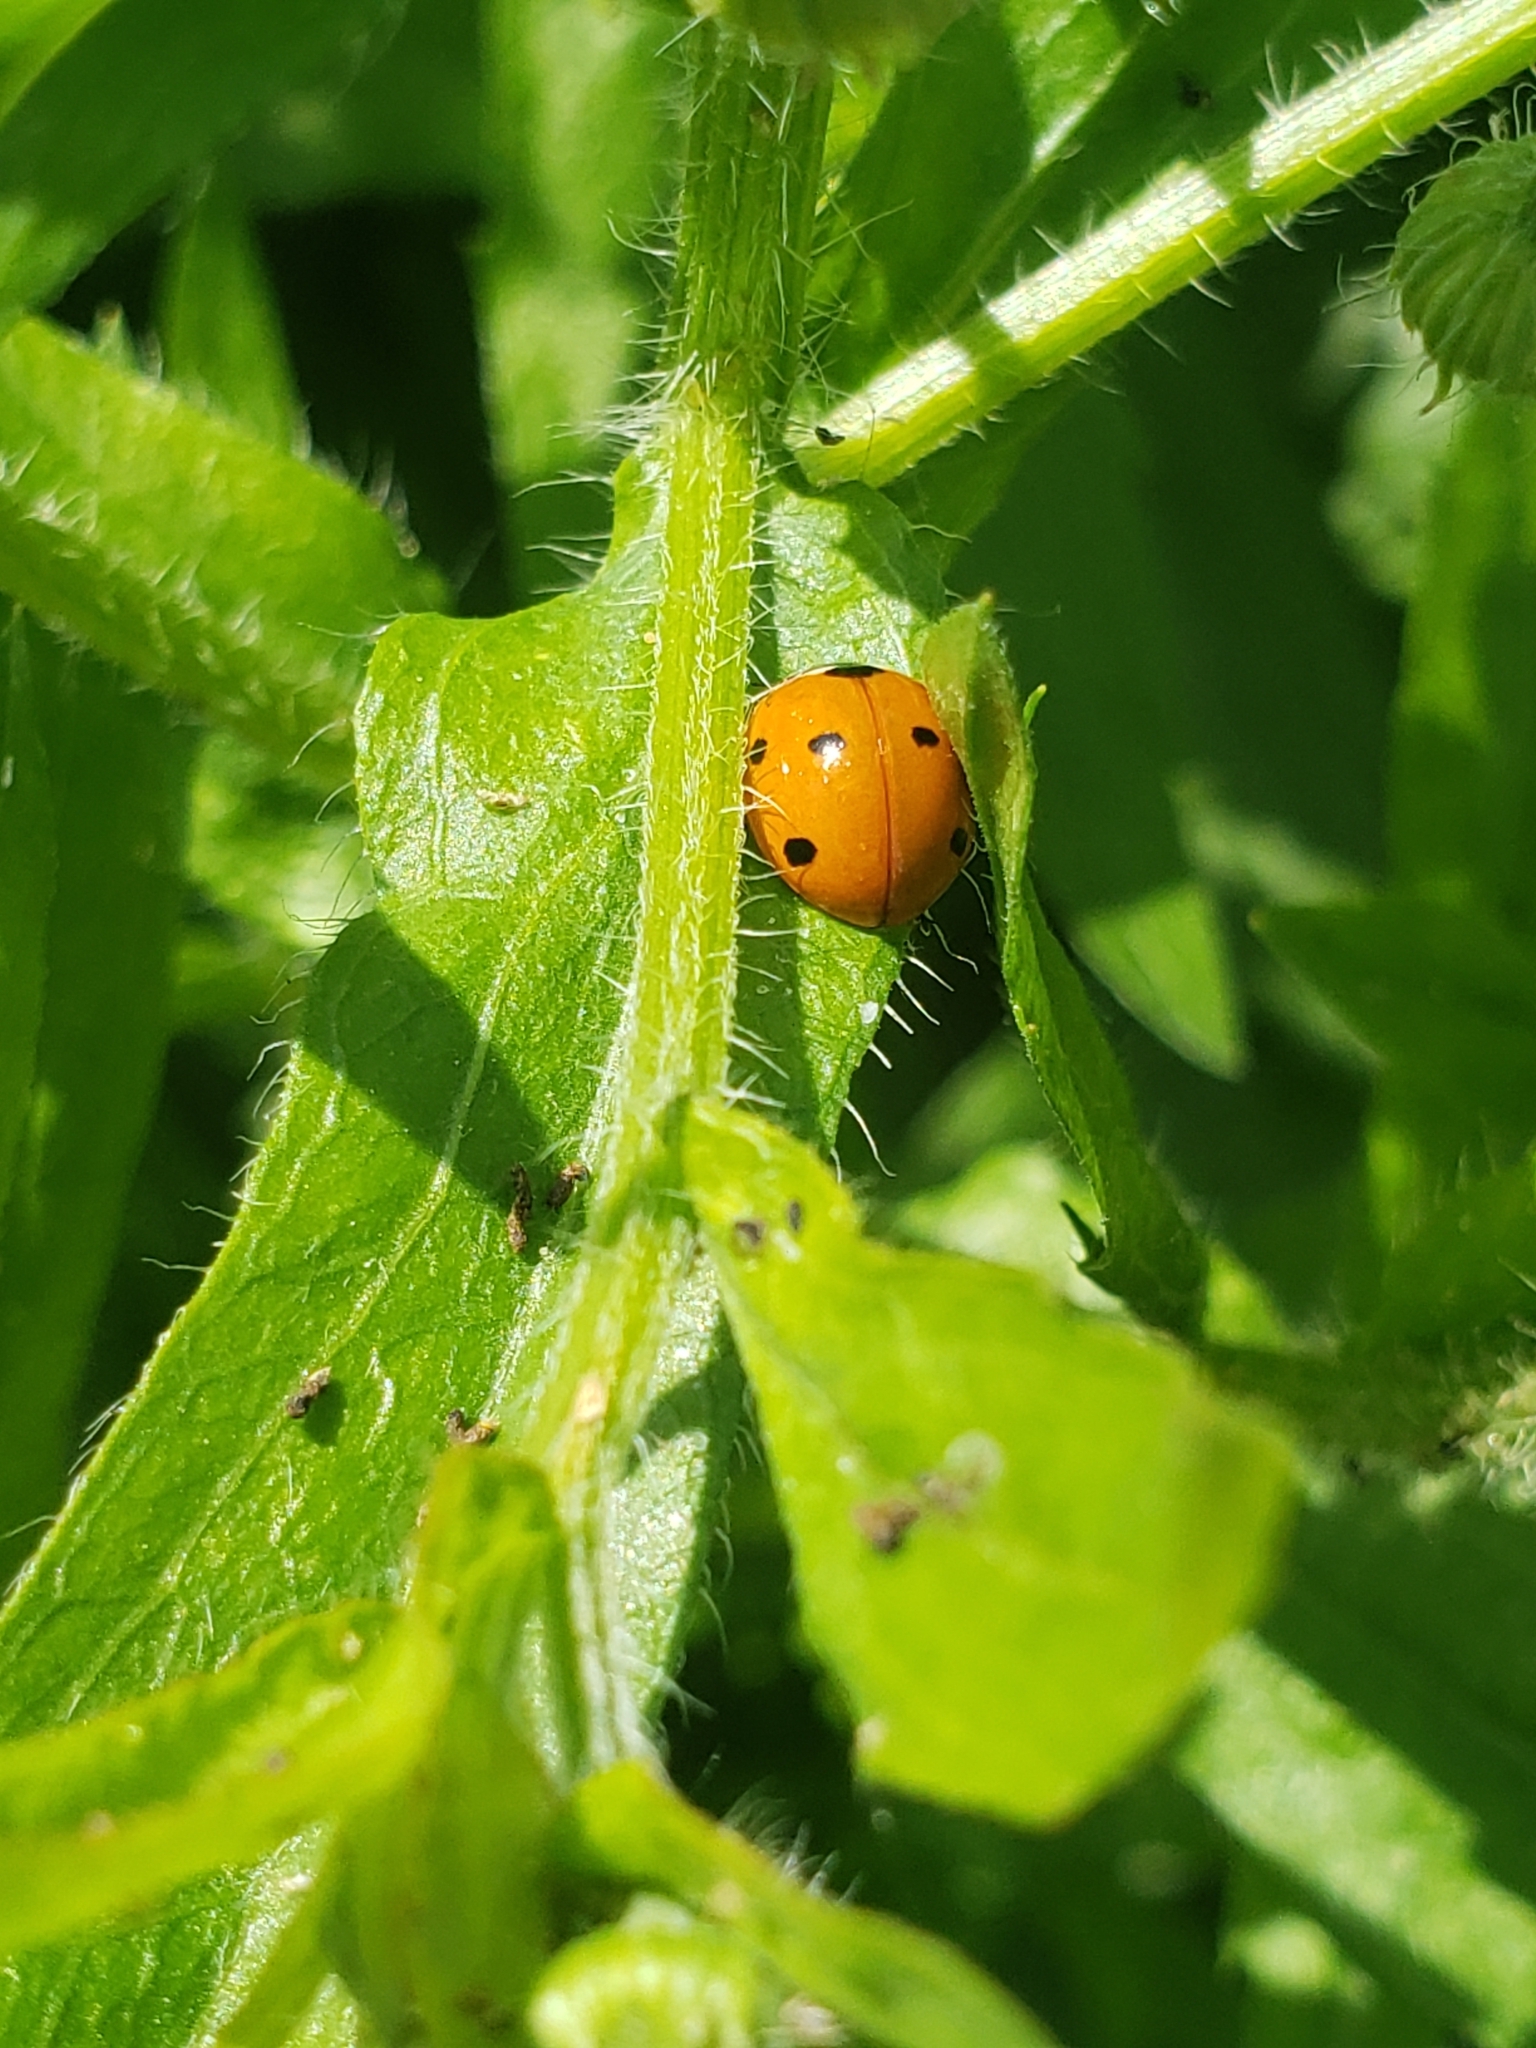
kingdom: Animalia
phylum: Arthropoda
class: Insecta
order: Coleoptera
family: Coccinellidae
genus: Coccinella
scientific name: Coccinella septempunctata
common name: Sevenspotted lady beetle
